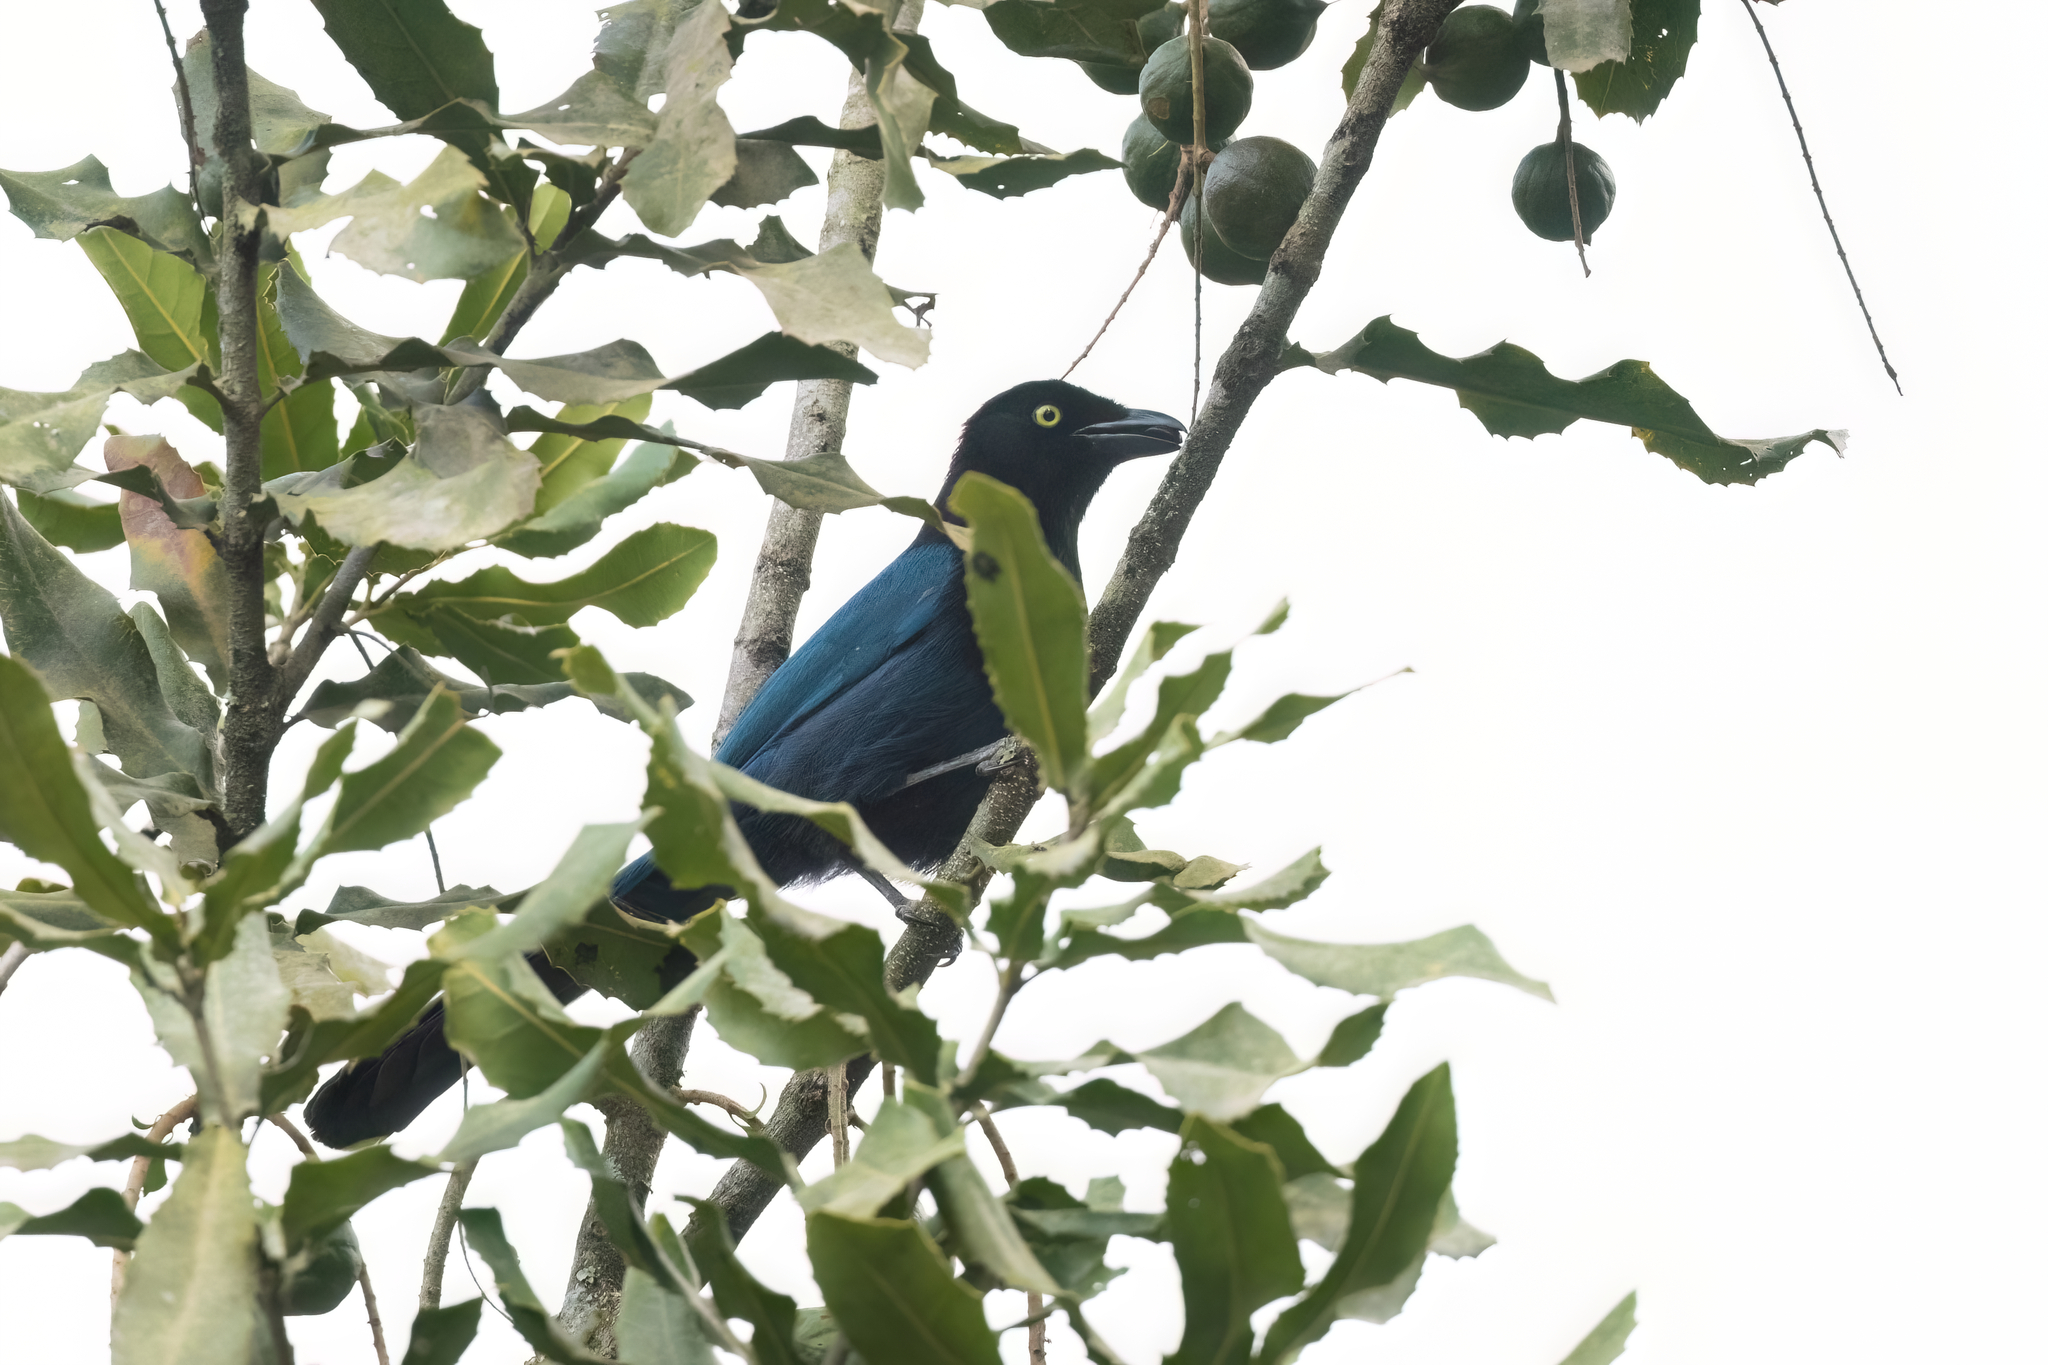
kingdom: Animalia
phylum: Chordata
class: Aves
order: Passeriformes
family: Corvidae
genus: Cyanocorax
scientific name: Cyanocorax melanocyaneus
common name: Bushy-crested jay
